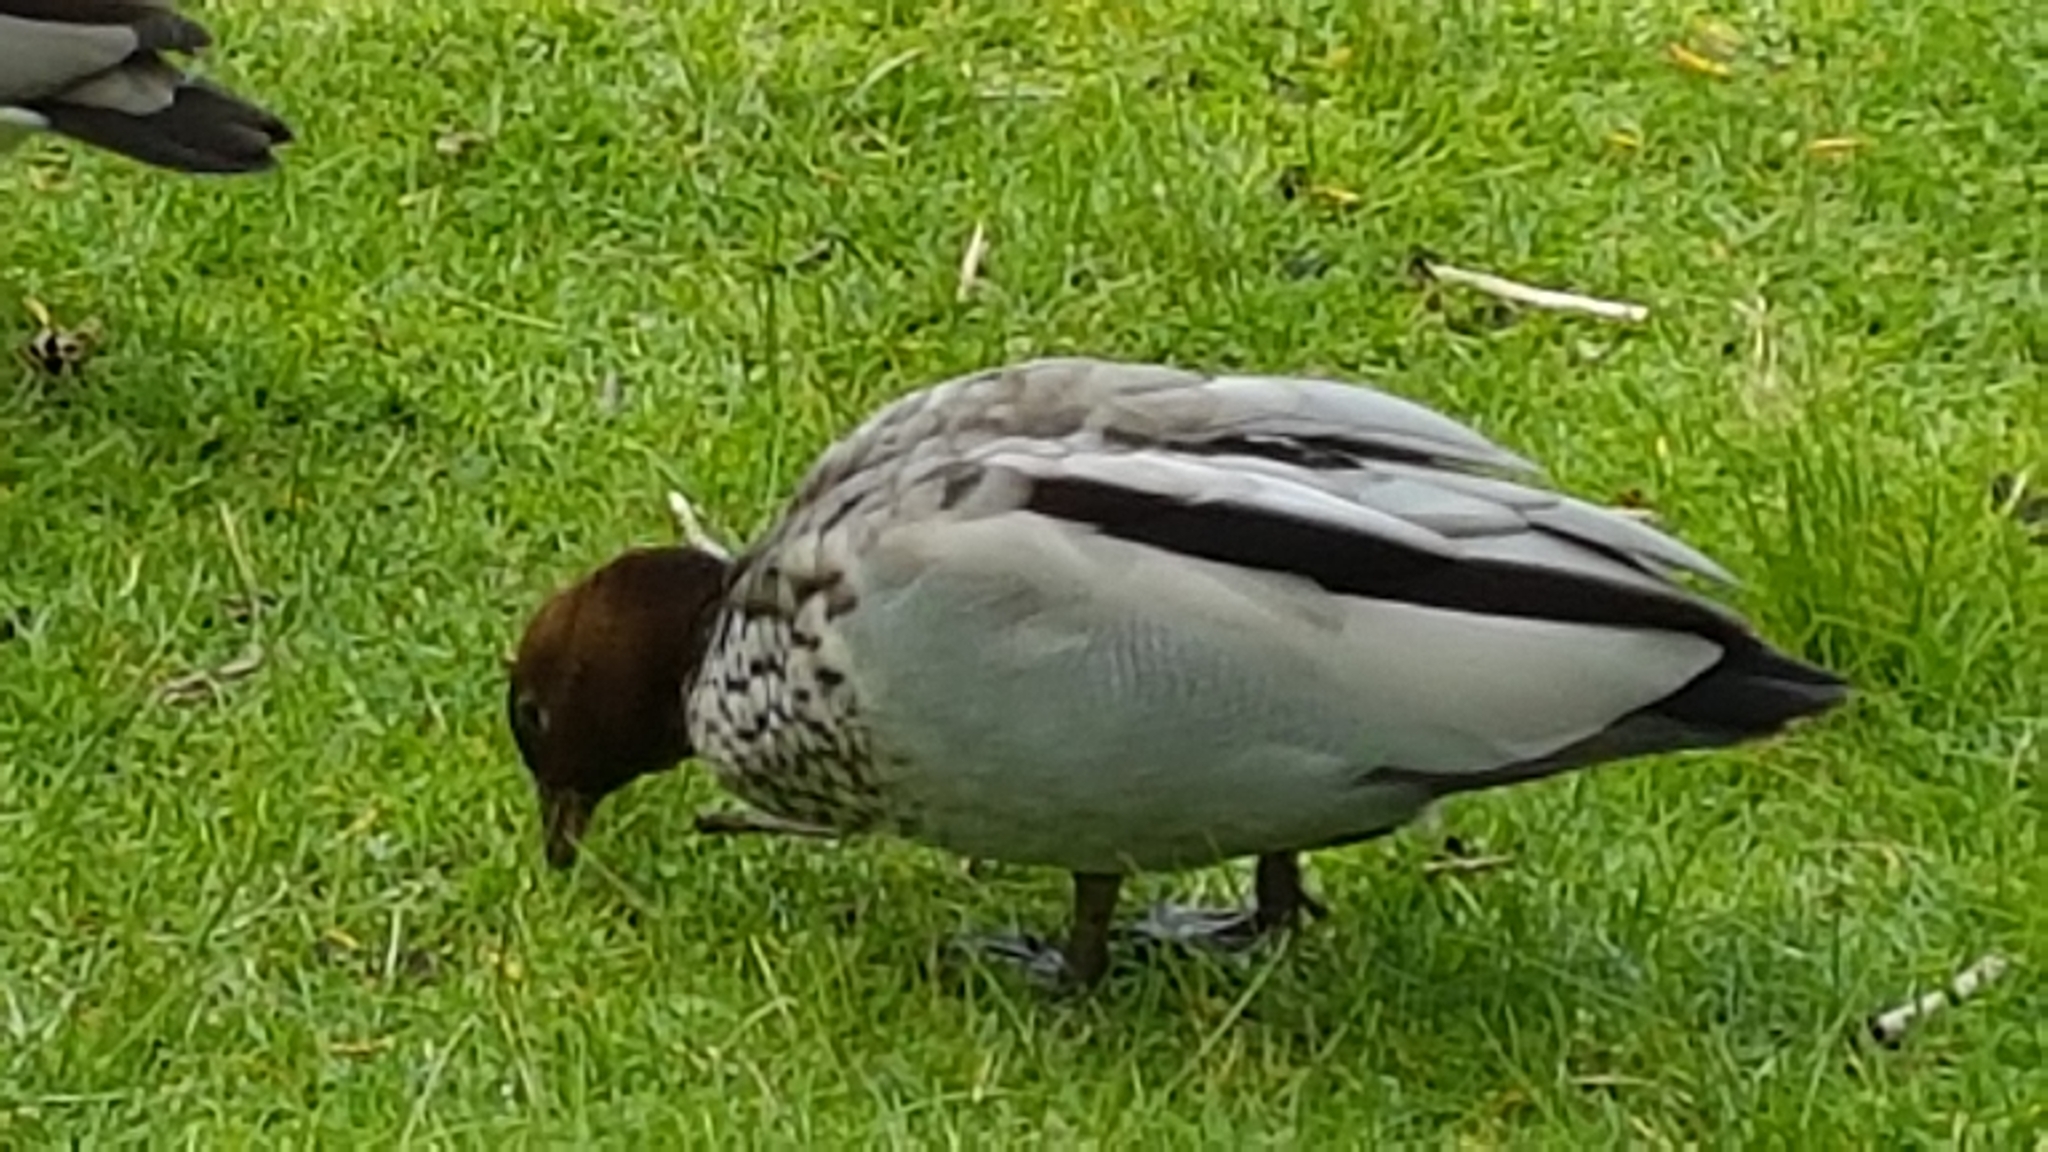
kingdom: Animalia
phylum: Chordata
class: Aves
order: Anseriformes
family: Anatidae
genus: Chenonetta
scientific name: Chenonetta jubata
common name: Maned duck
